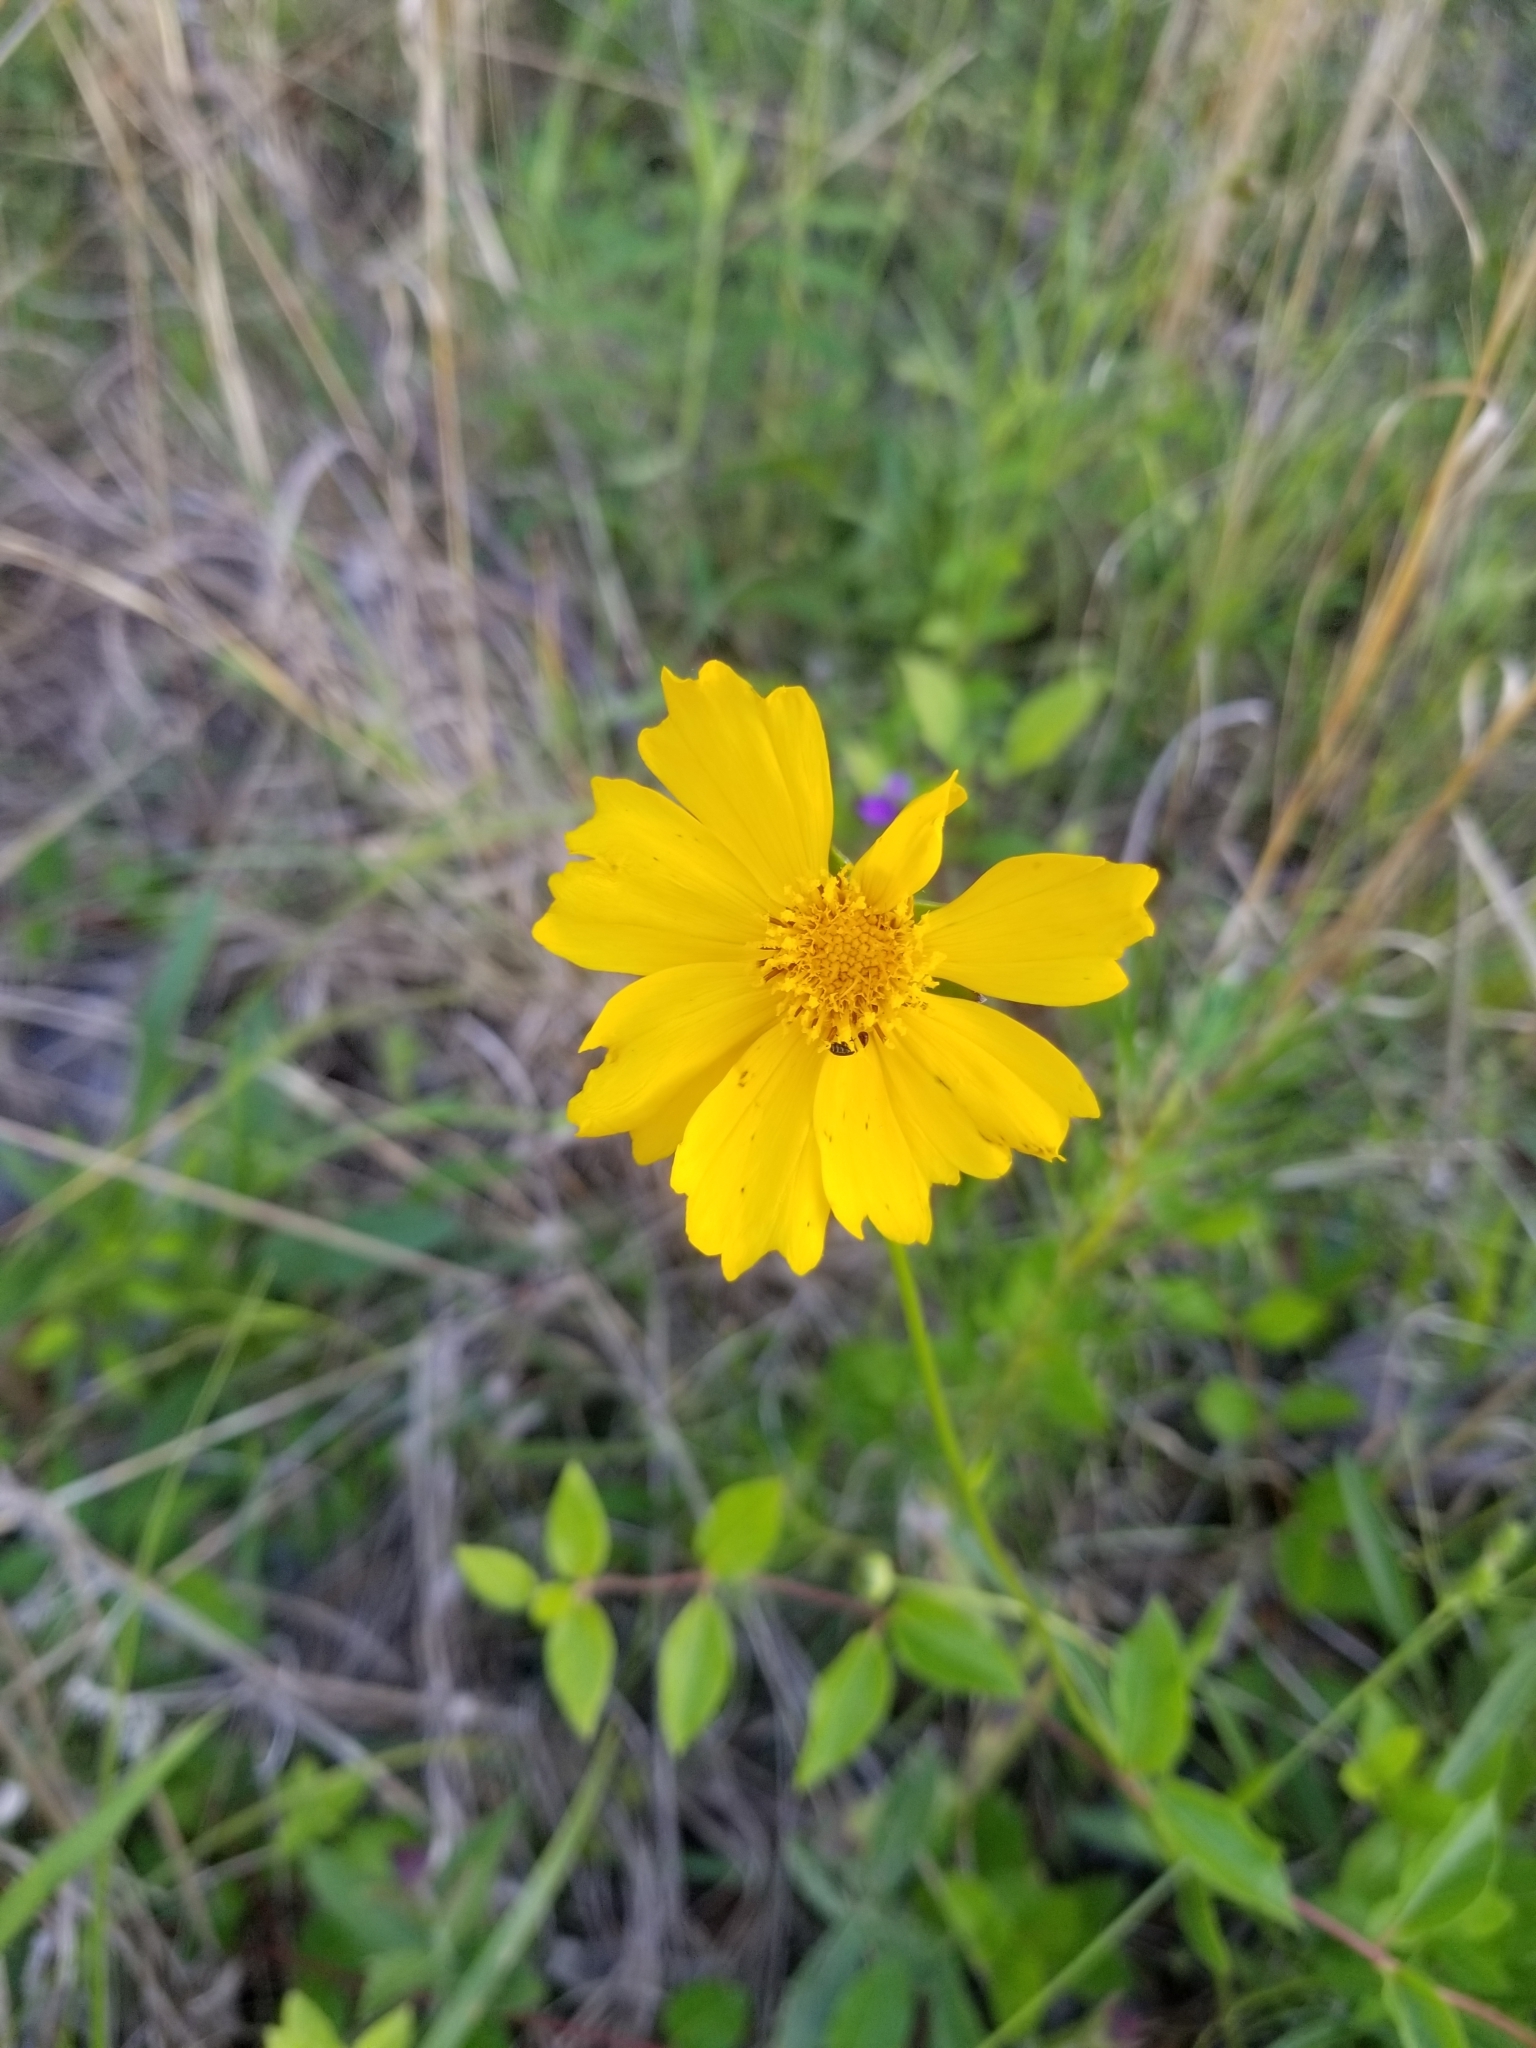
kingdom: Plantae
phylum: Tracheophyta
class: Magnoliopsida
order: Asterales
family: Asteraceae
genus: Coreopsis
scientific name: Coreopsis lanceolata
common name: Garden coreopsis
